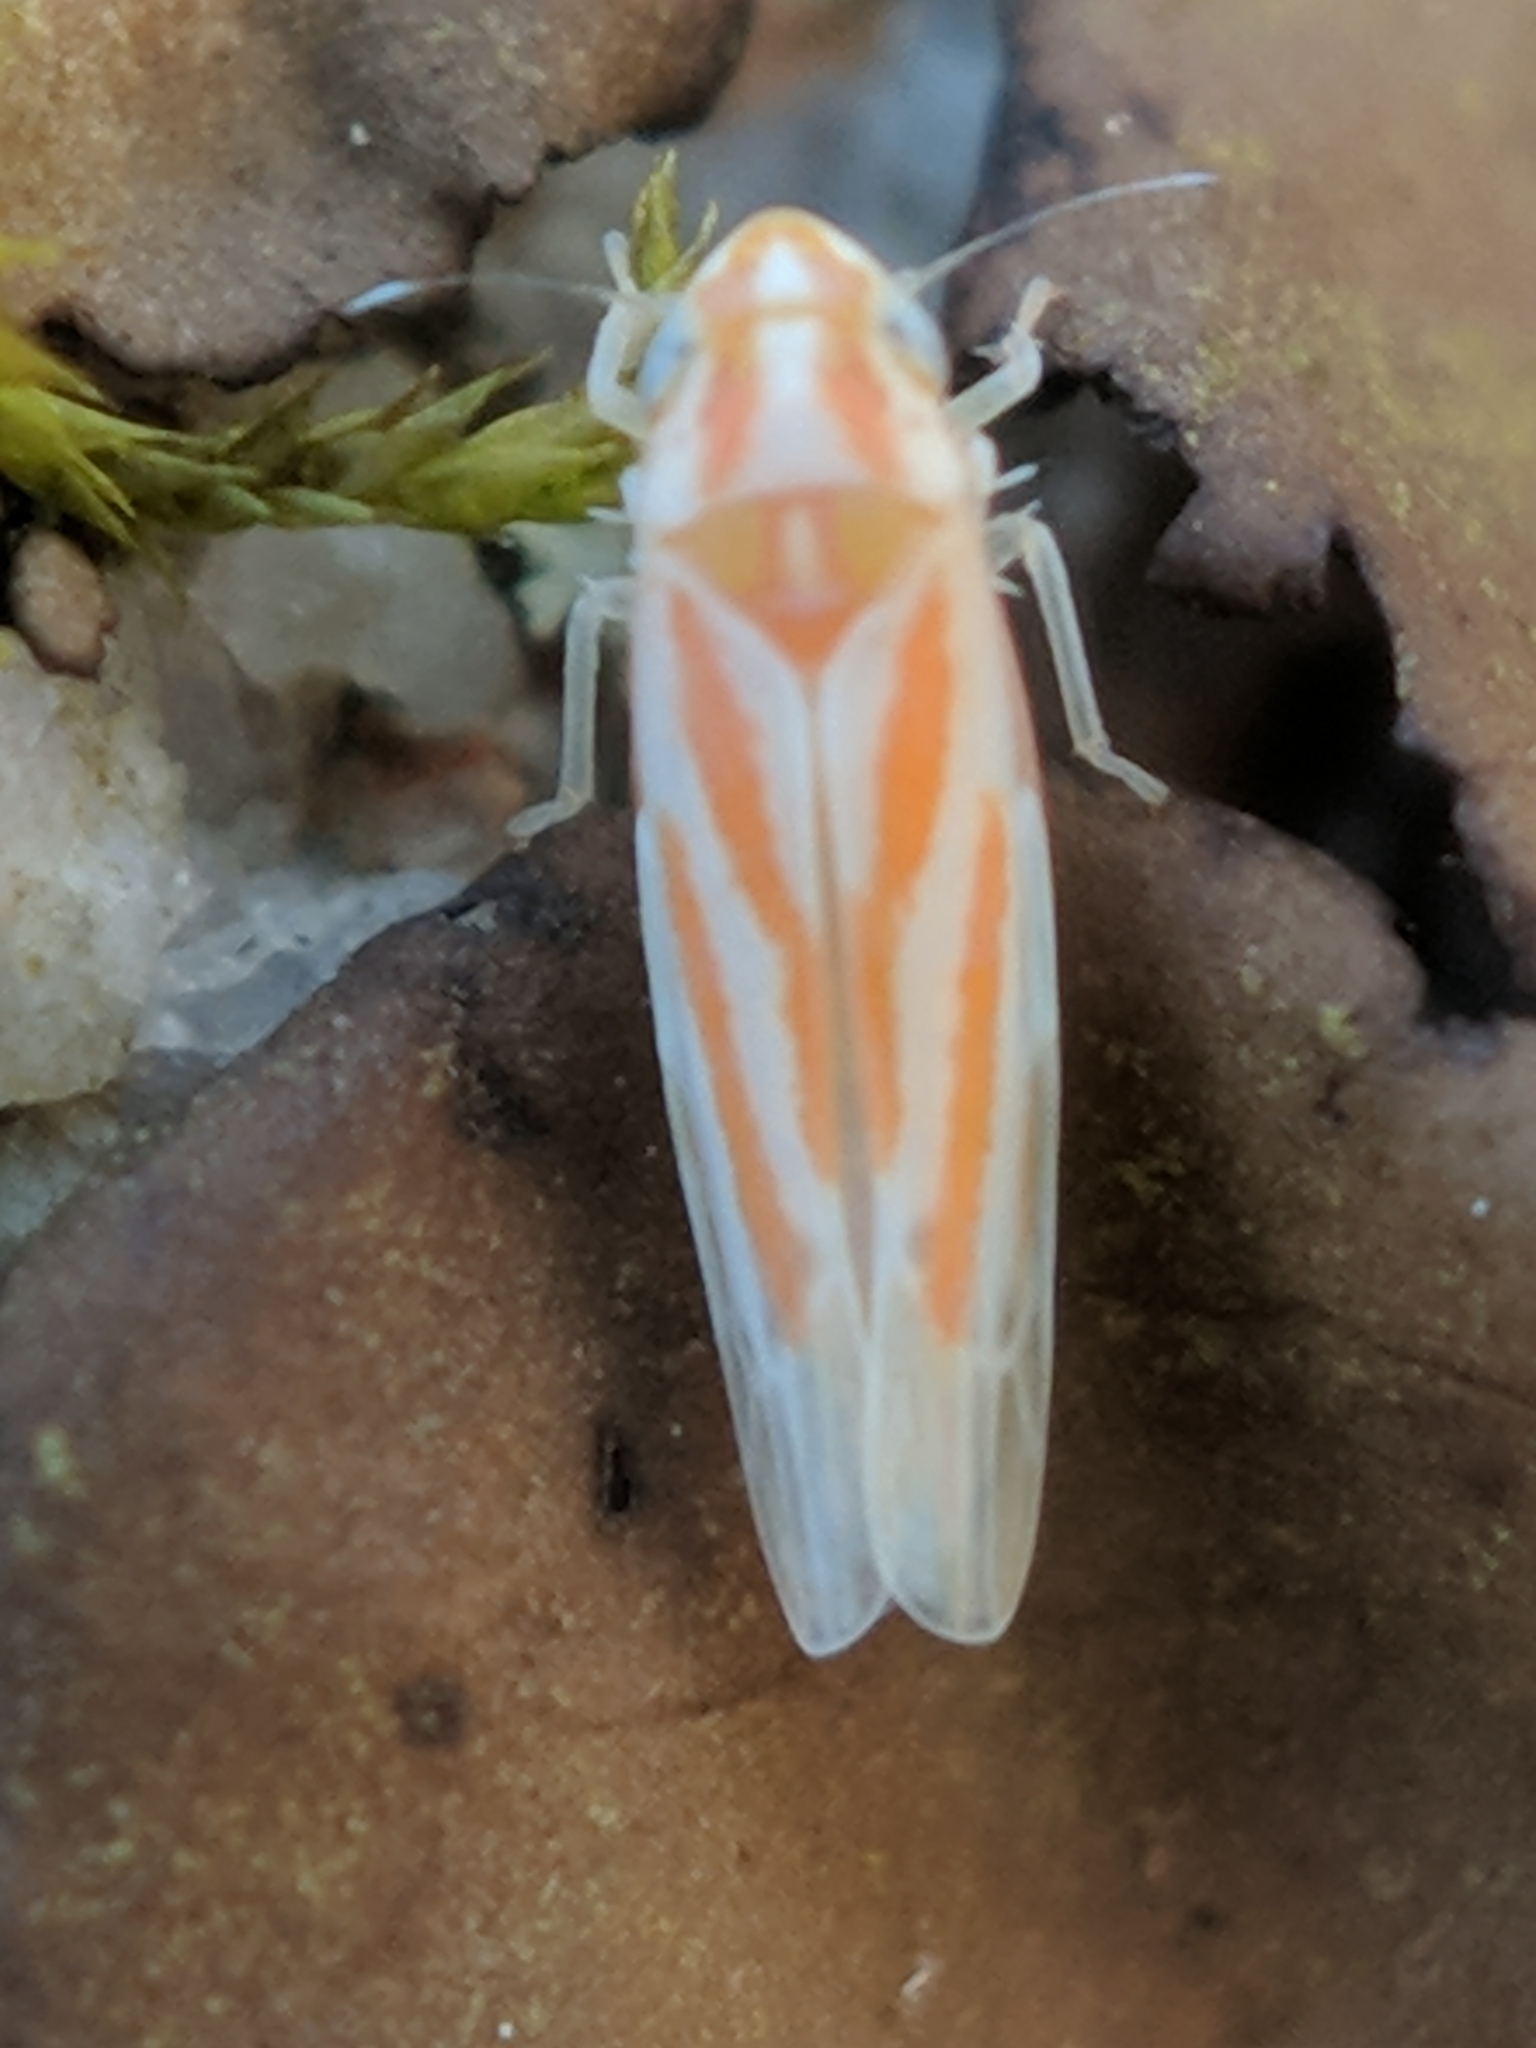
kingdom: Animalia
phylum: Arthropoda
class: Insecta
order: Hemiptera
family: Cicadellidae
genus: Erythridula
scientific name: Erythridula
